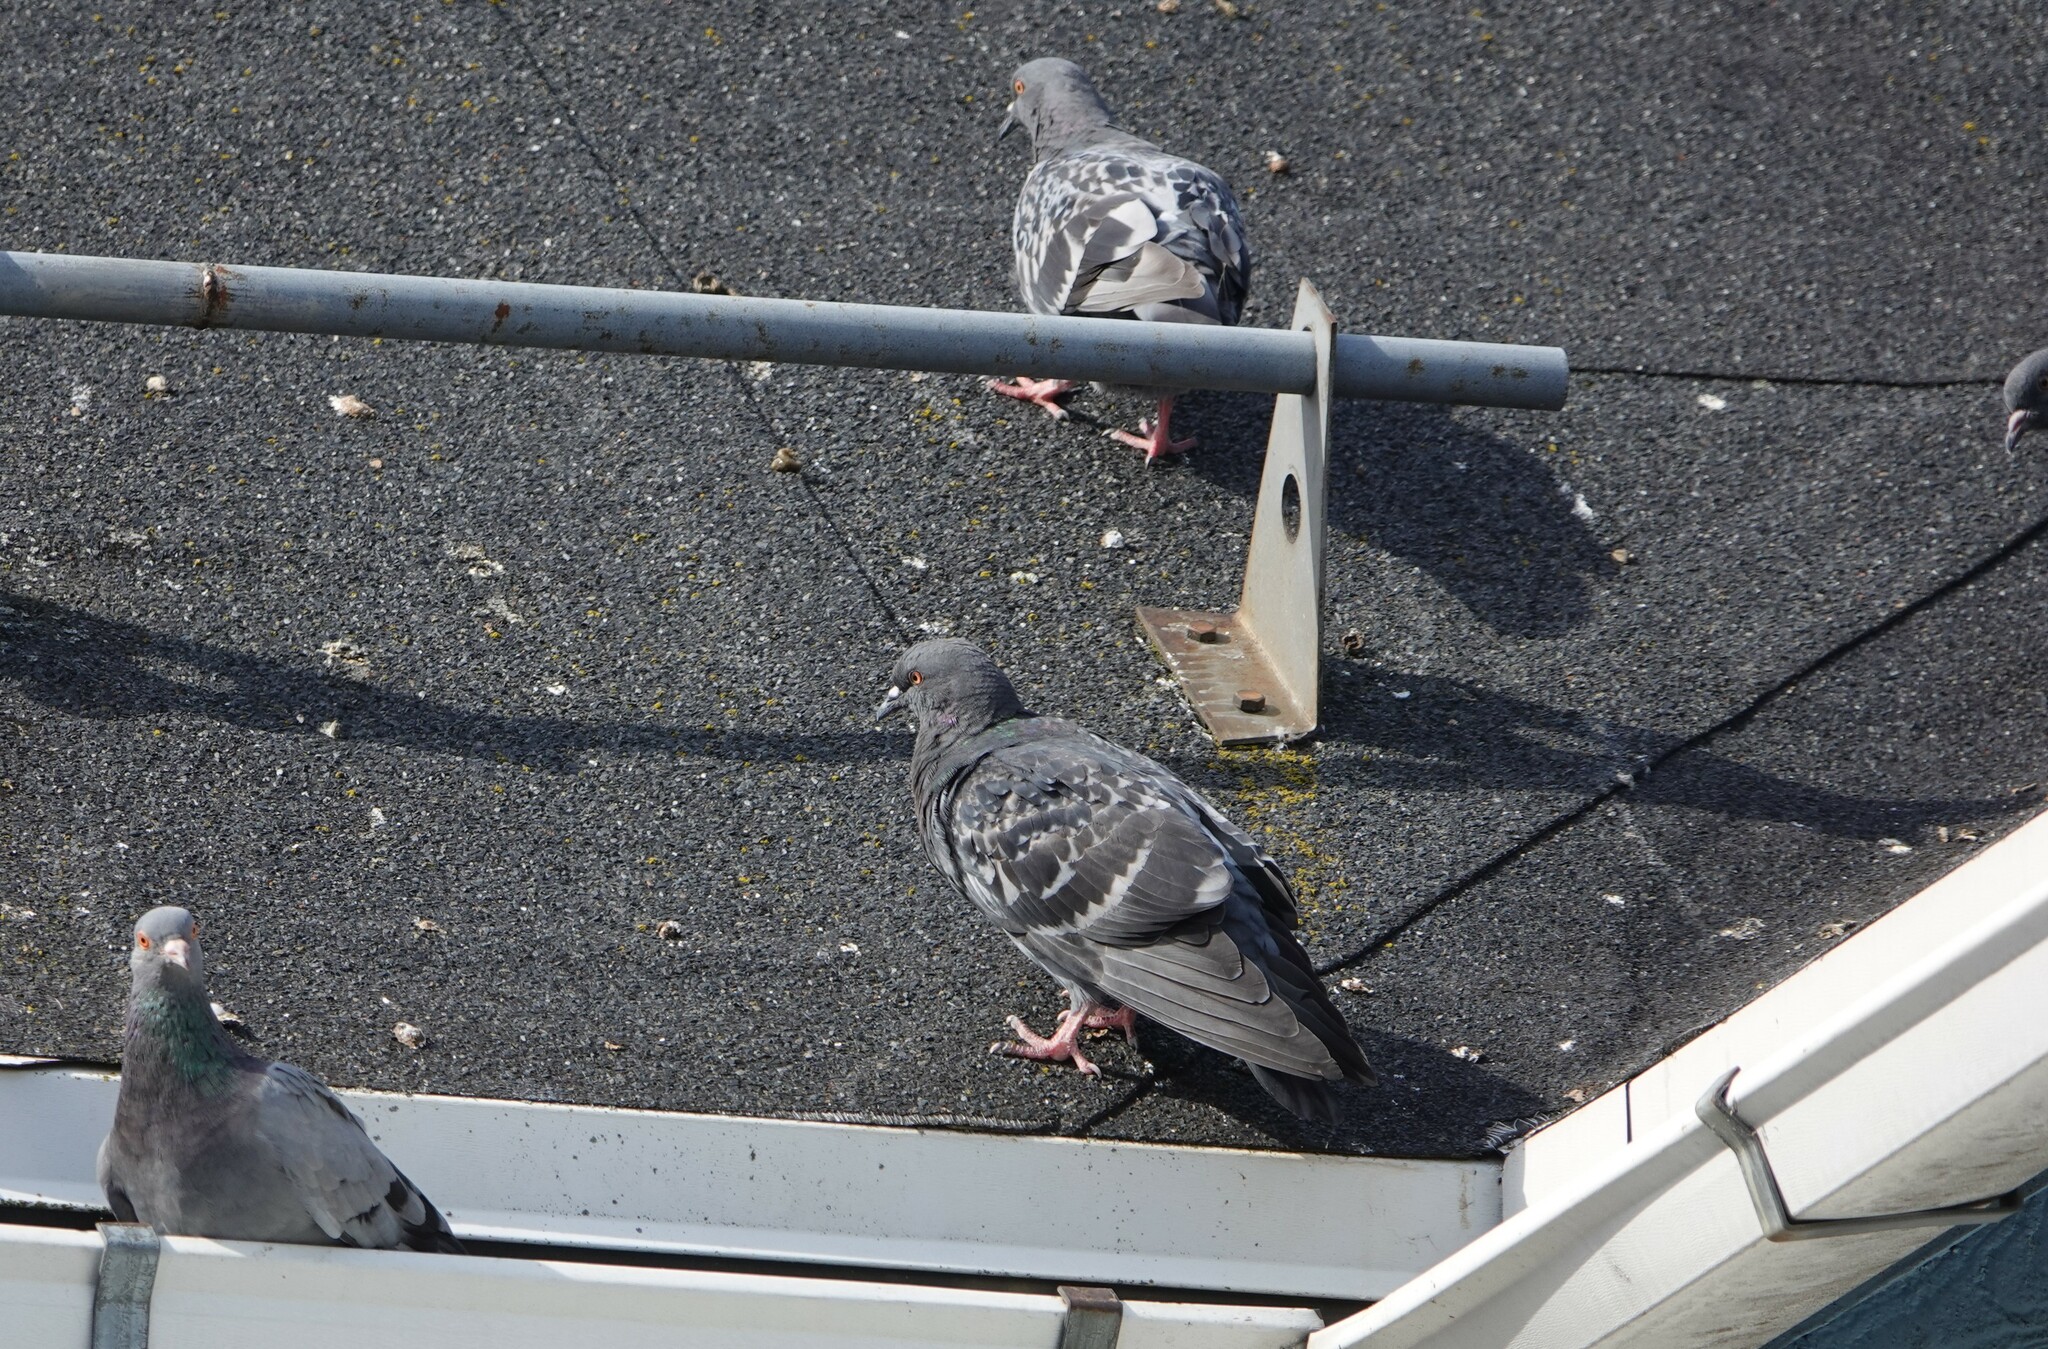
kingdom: Animalia
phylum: Chordata
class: Aves
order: Columbiformes
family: Columbidae
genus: Columba
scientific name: Columba livia
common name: Rock pigeon
